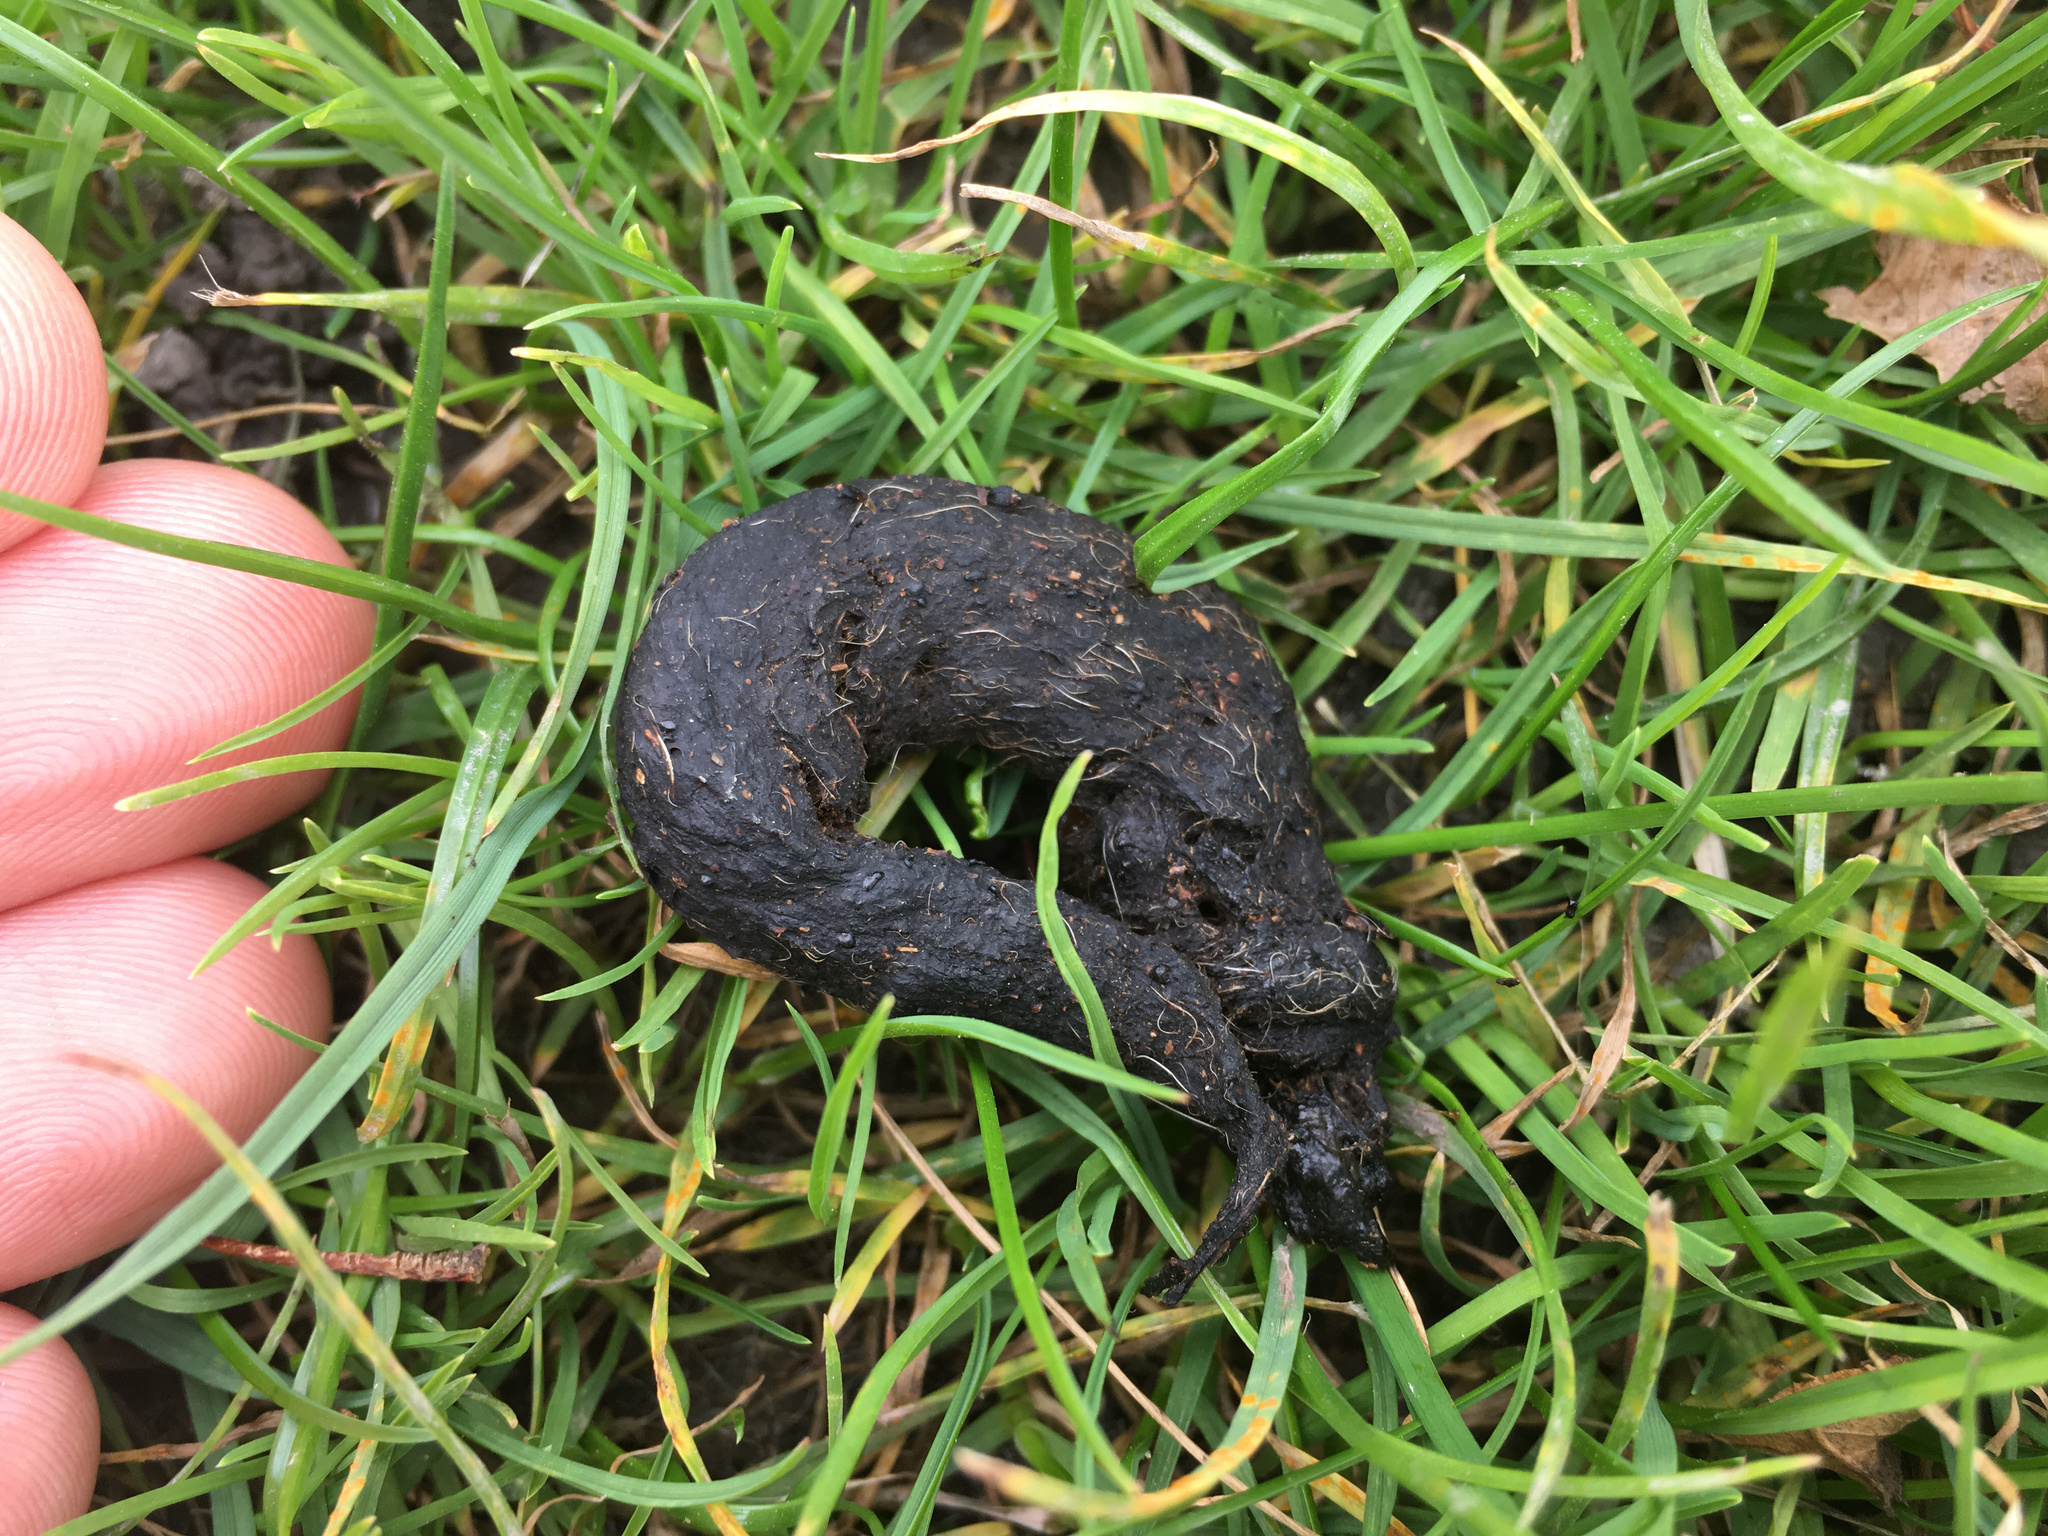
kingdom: Animalia
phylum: Chordata
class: Mammalia
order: Carnivora
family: Felidae
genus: Felis
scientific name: Felis catus
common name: Domestic cat
